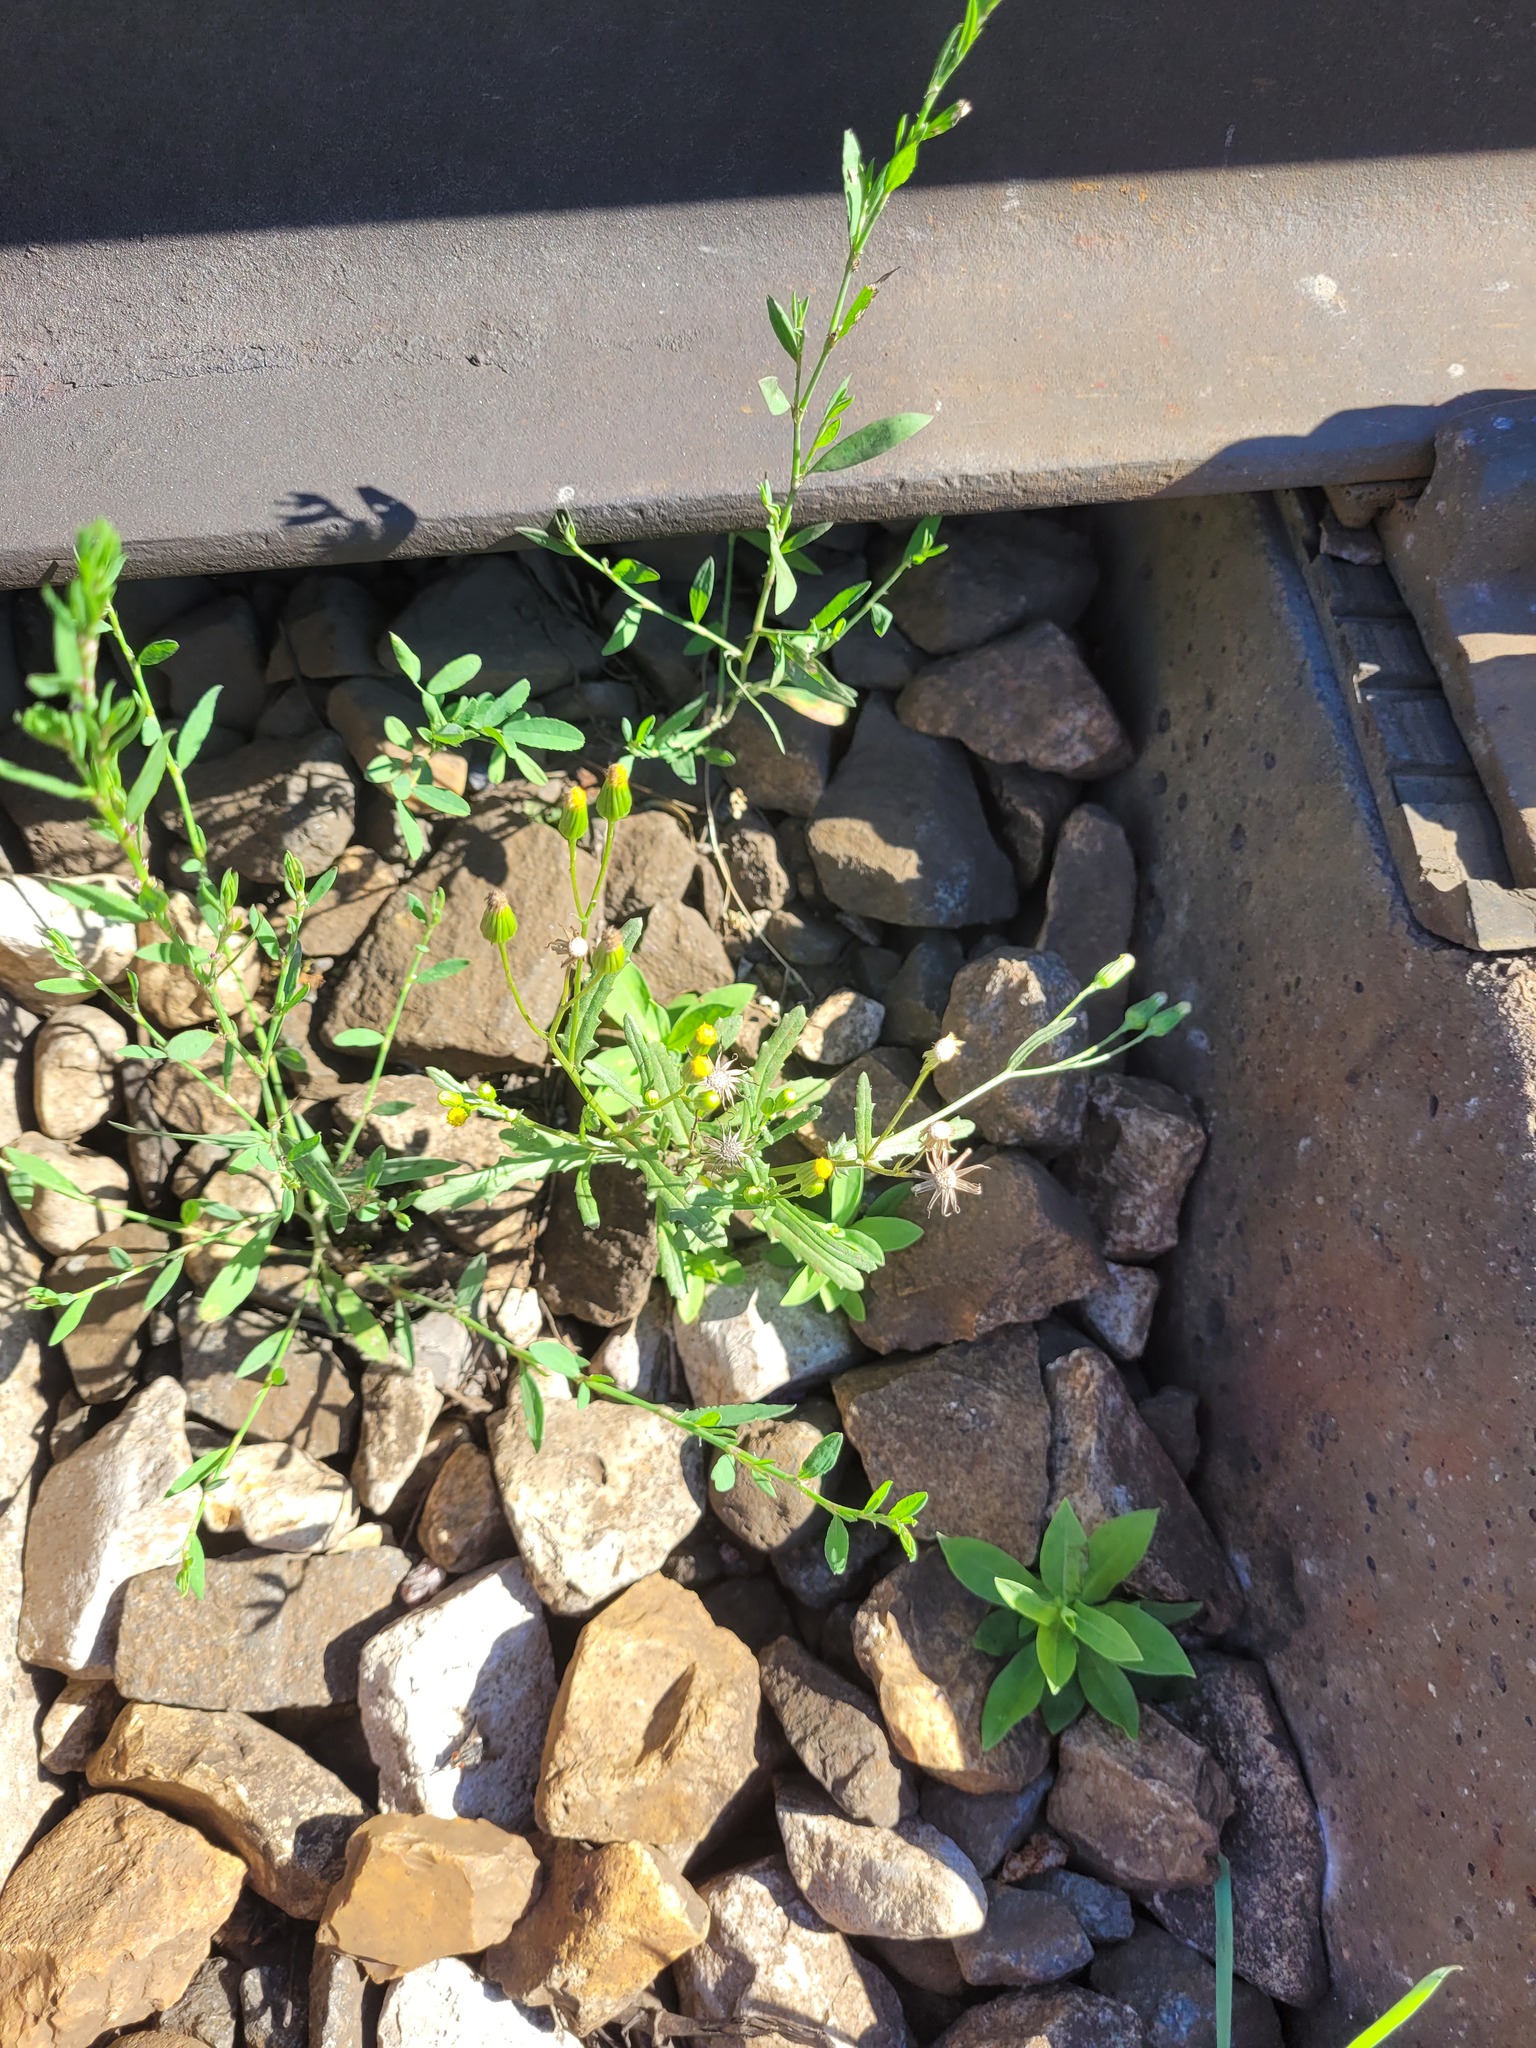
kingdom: Plantae
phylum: Tracheophyta
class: Magnoliopsida
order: Asterales
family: Asteraceae
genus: Senecio
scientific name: Senecio dubitabilis
